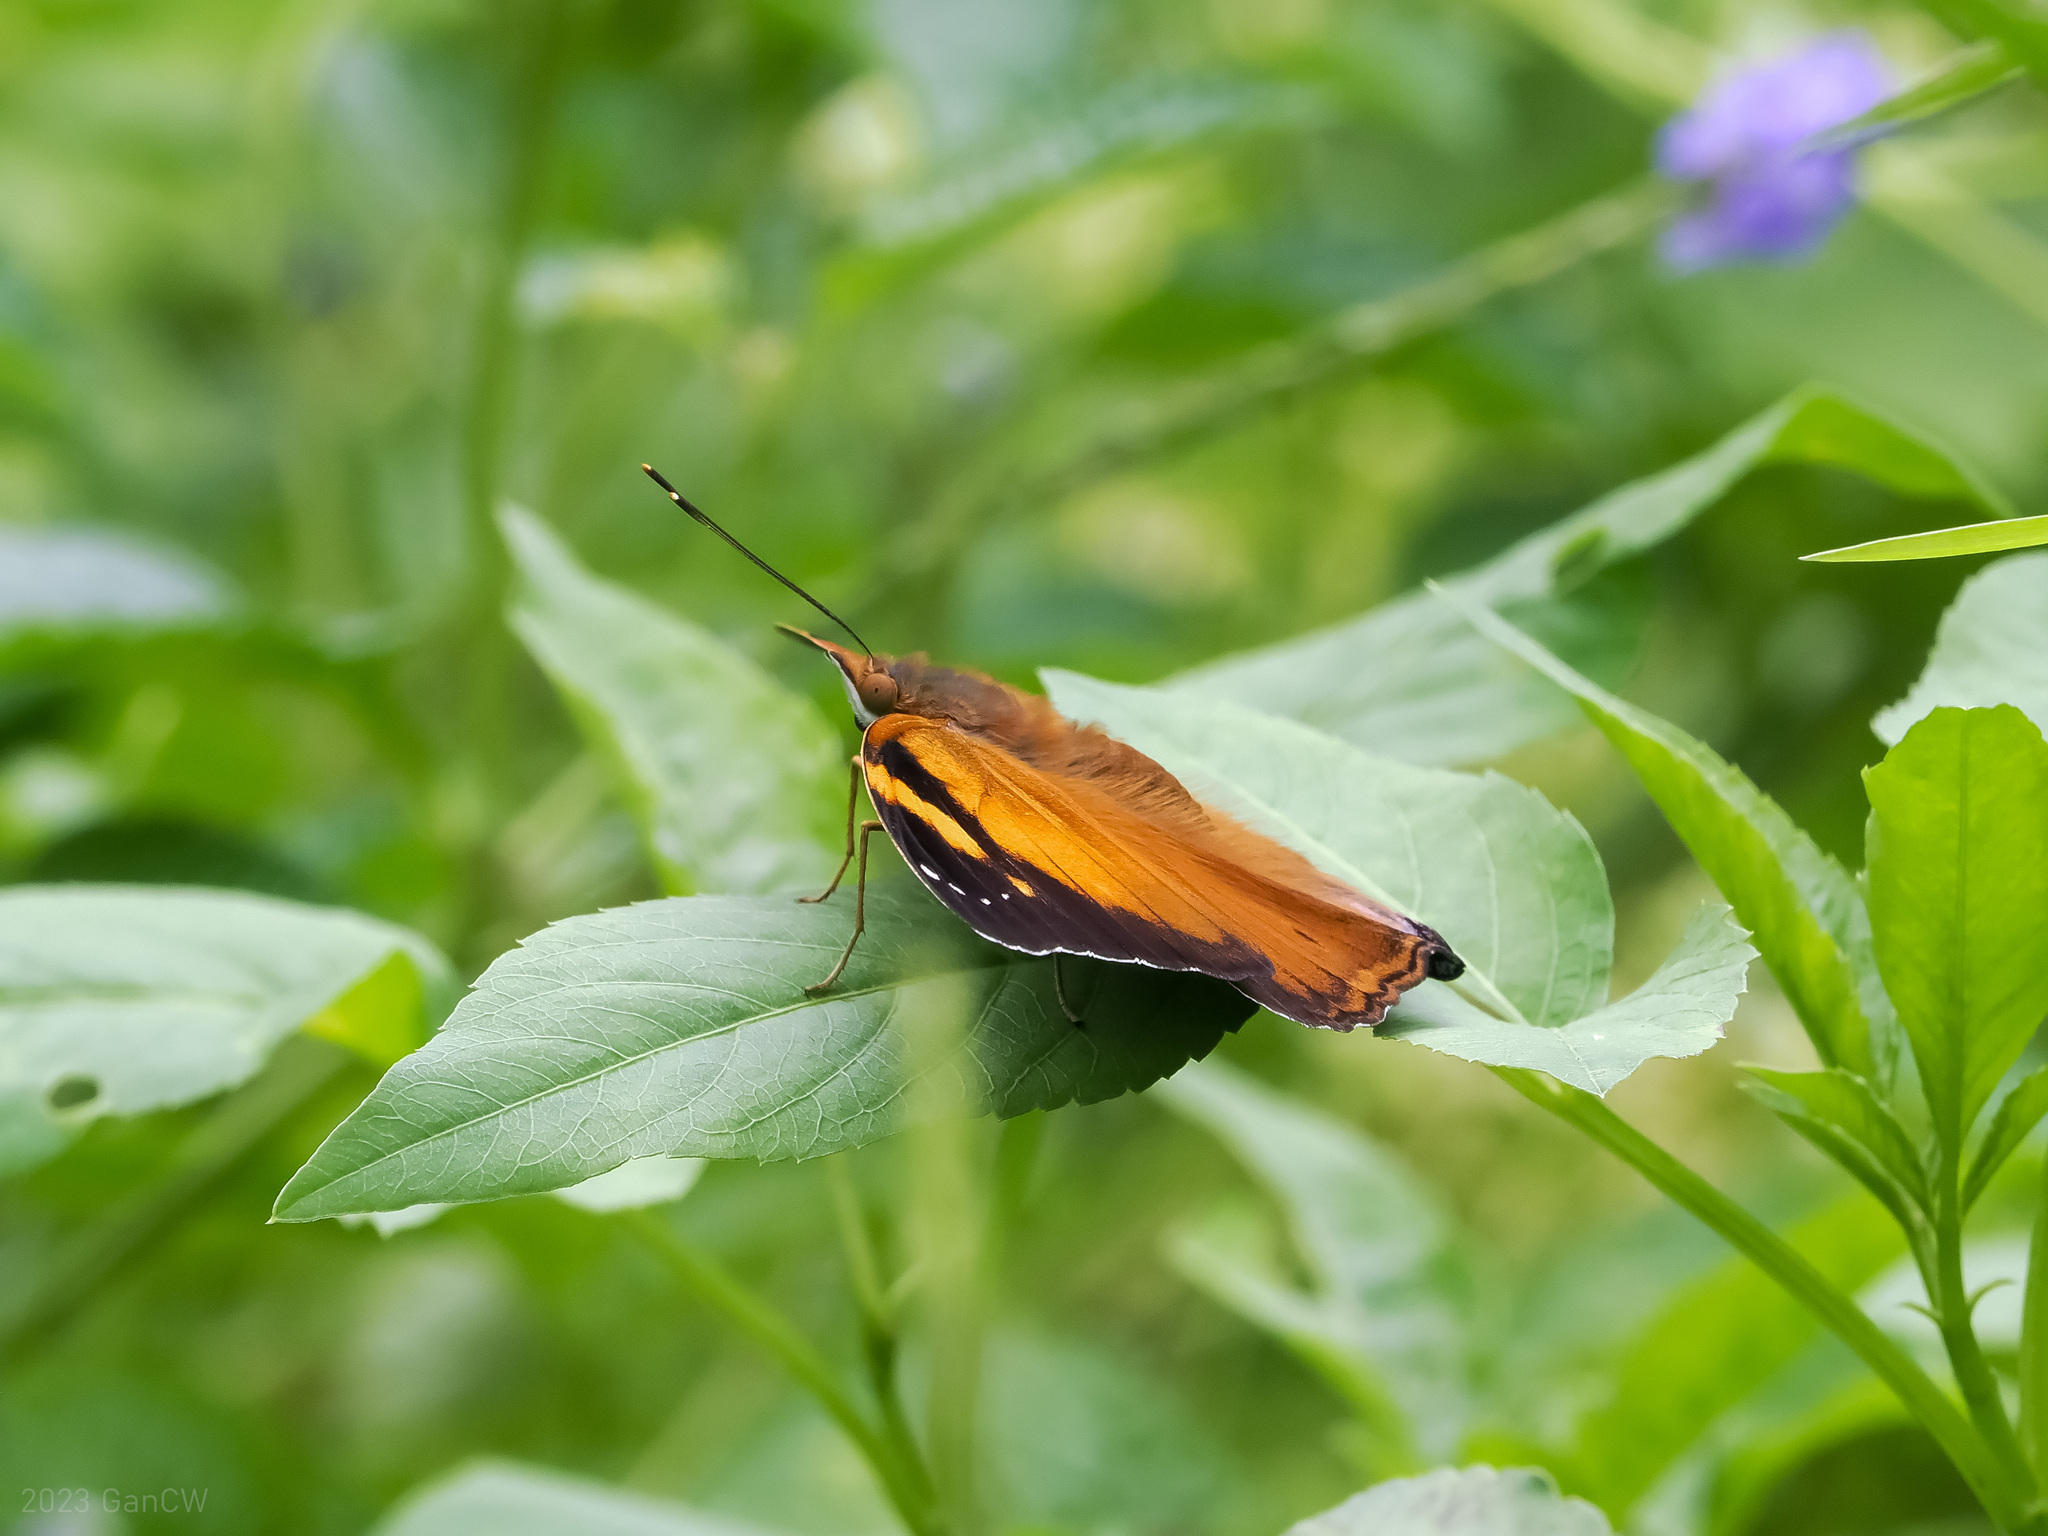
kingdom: Animalia
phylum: Arthropoda
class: Insecta
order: Lepidoptera
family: Nymphalidae
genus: Doleschallia
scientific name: Doleschallia bisaltide
